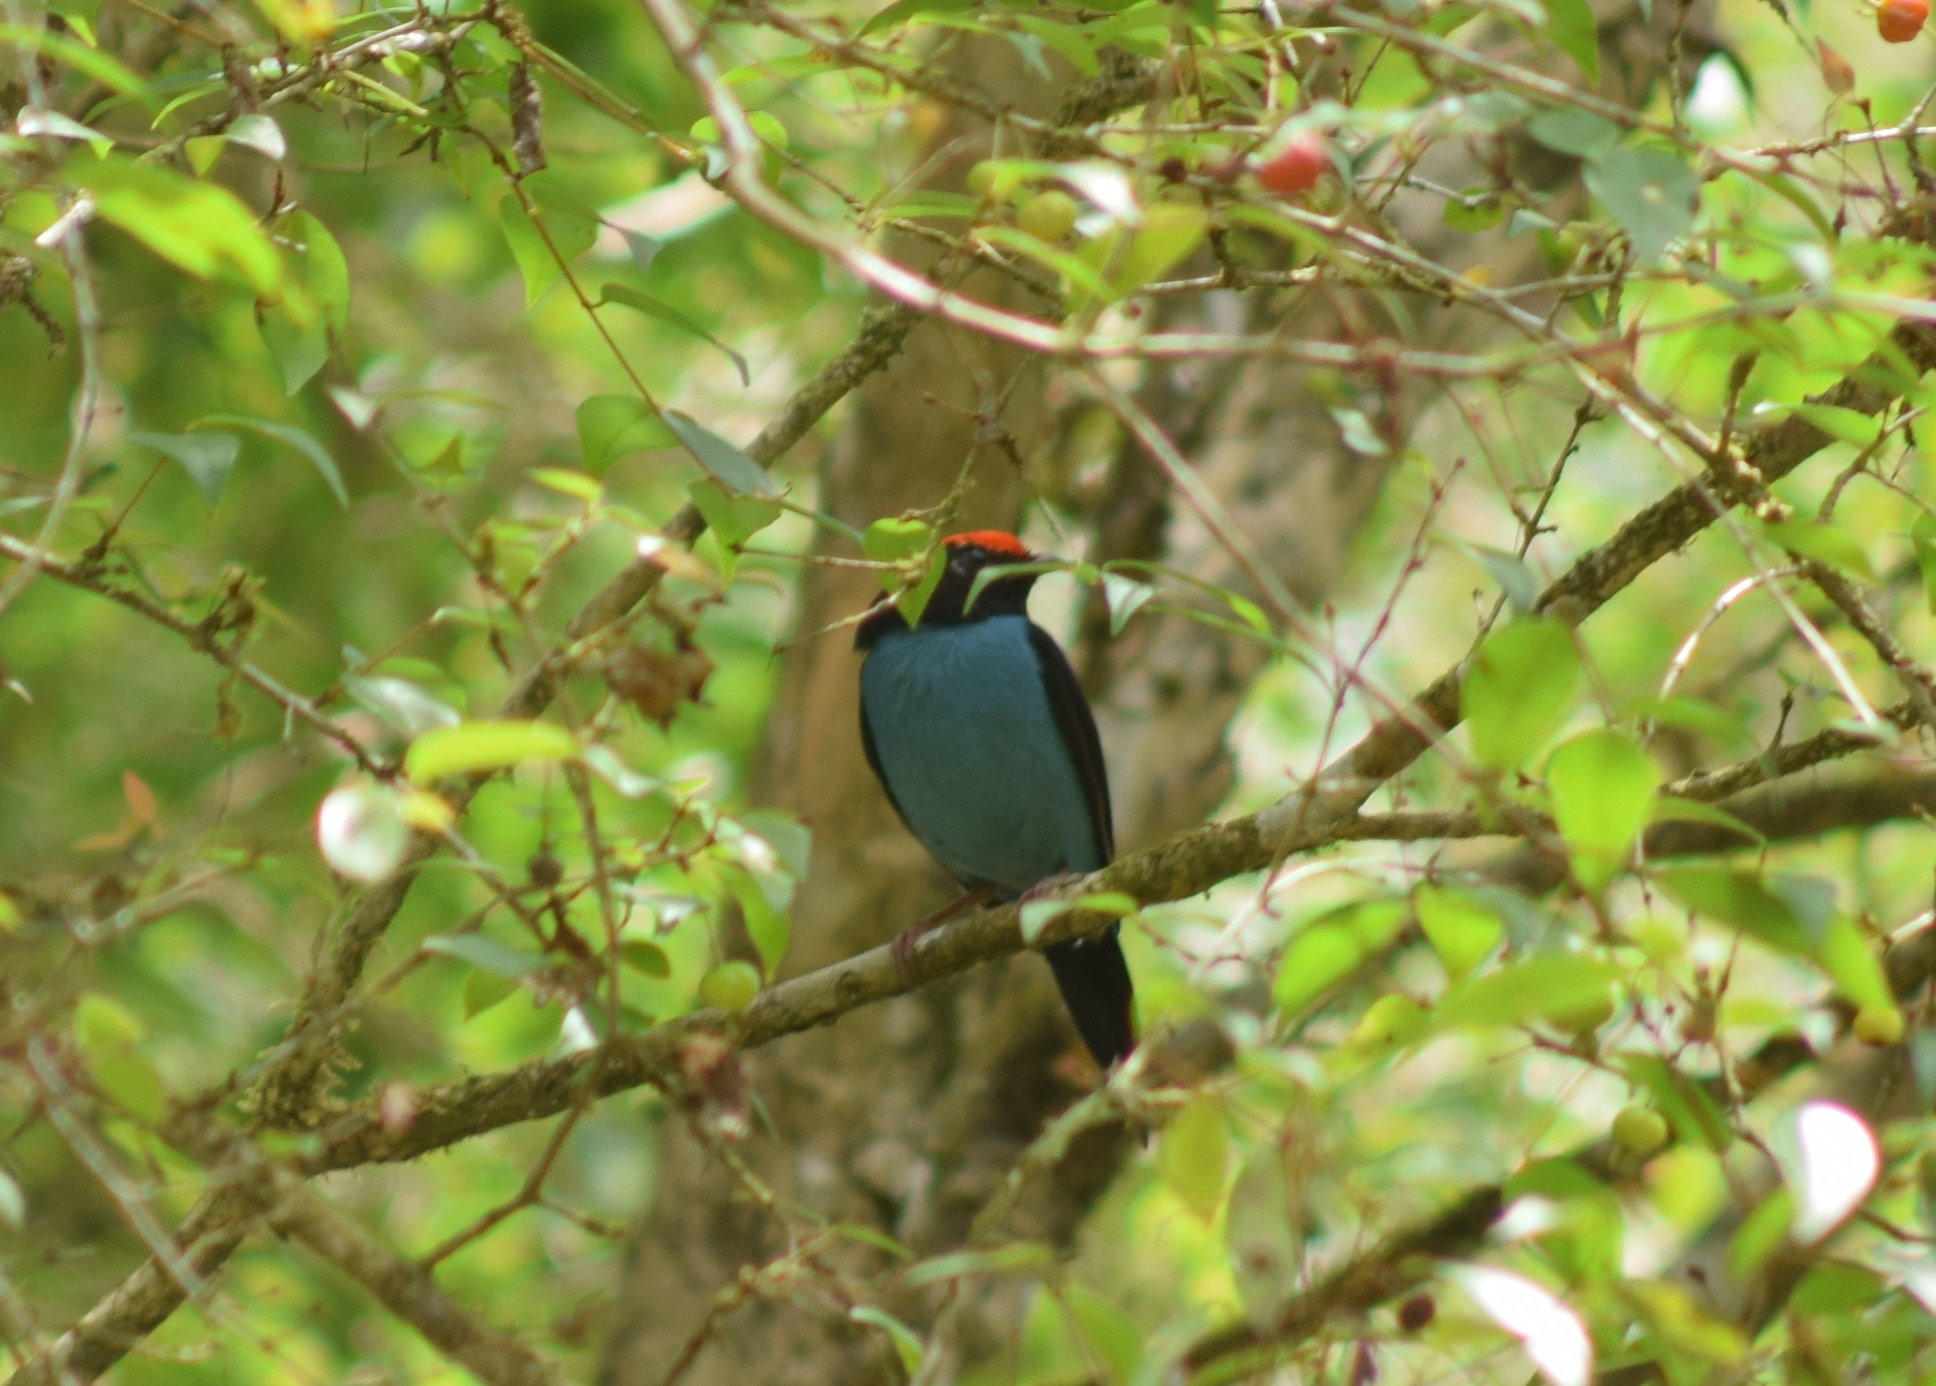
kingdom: Animalia
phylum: Chordata
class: Aves
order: Passeriformes
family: Pipridae
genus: Chiroxiphia
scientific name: Chiroxiphia caudata
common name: Blue manakin
